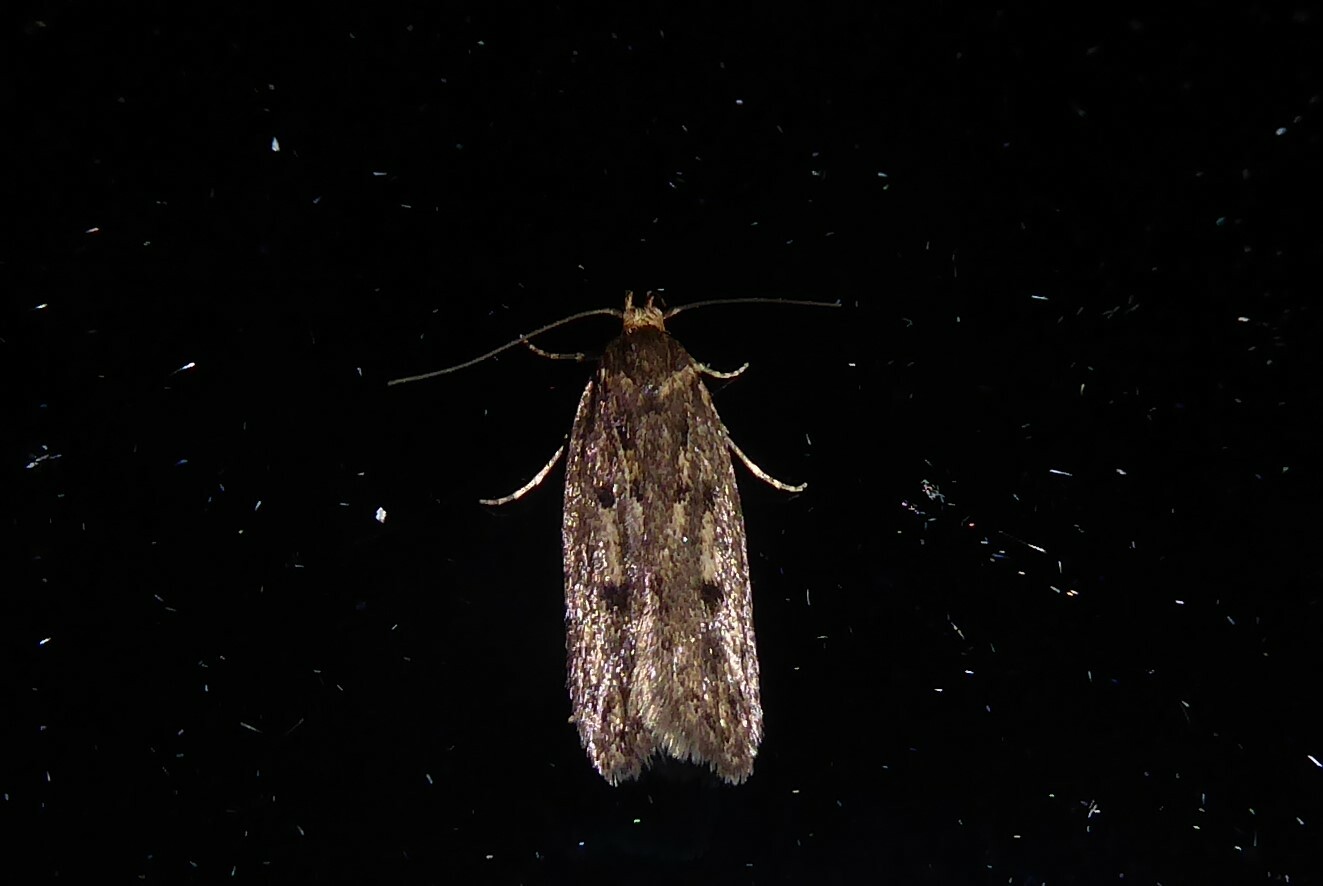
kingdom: Animalia
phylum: Arthropoda
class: Insecta
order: Lepidoptera
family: Oecophoridae
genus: Hofmannophila
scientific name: Hofmannophila pseudospretella
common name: Brown house moth
